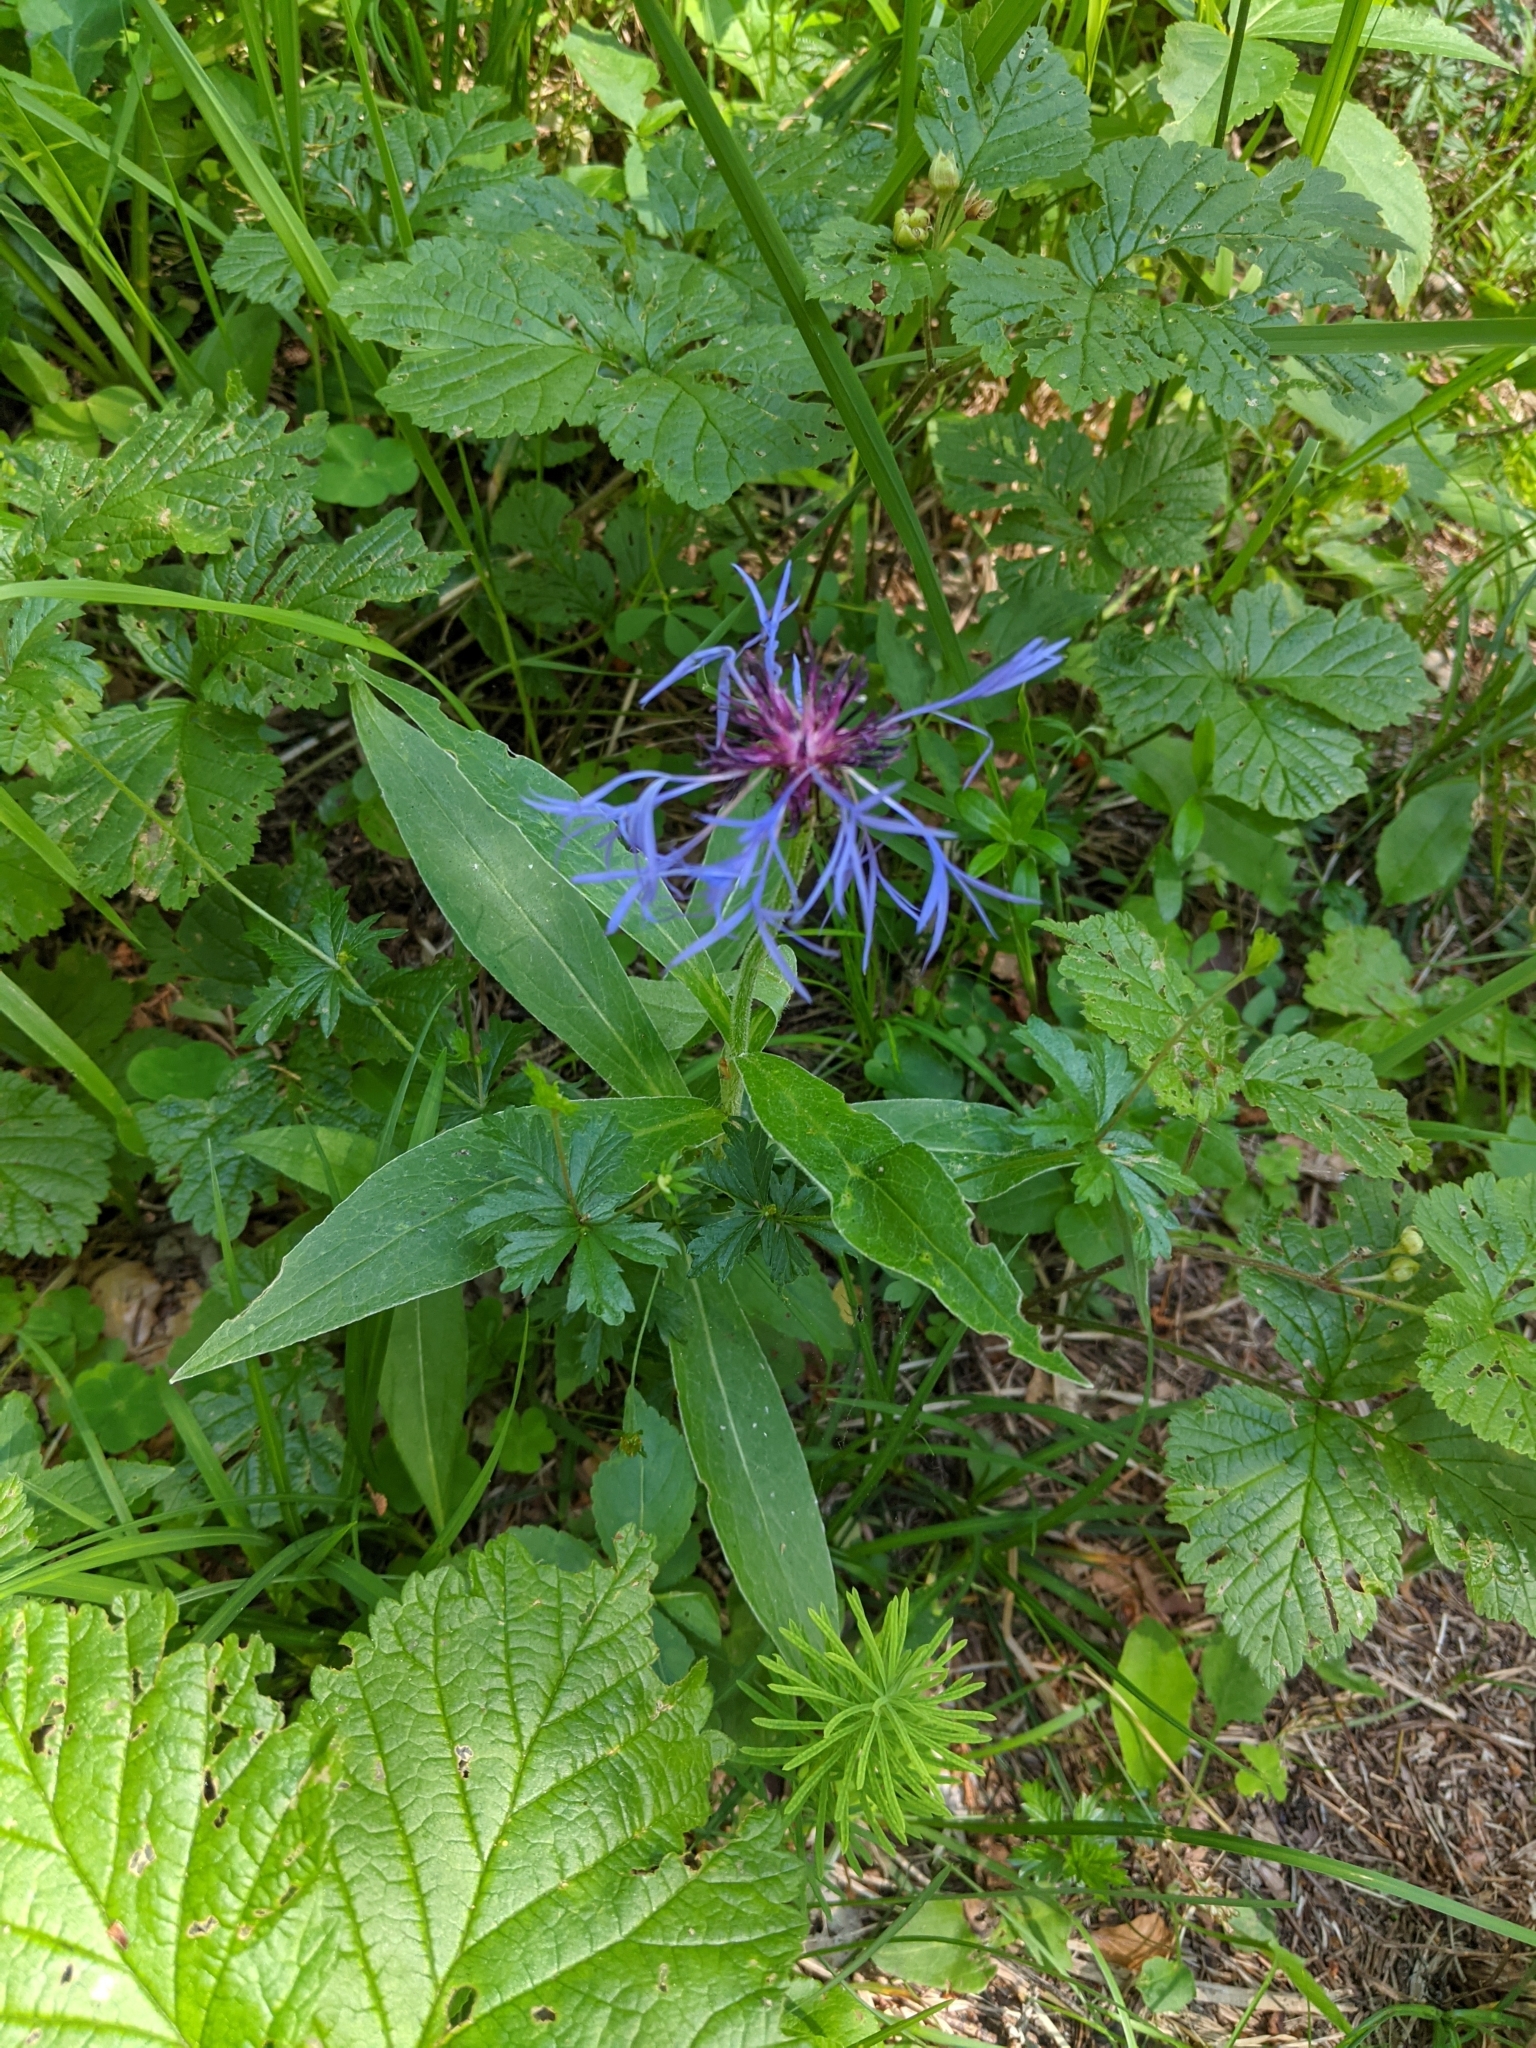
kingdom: Plantae
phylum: Tracheophyta
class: Magnoliopsida
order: Asterales
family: Asteraceae
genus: Centaurea
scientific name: Centaurea montana
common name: Perennial cornflower
